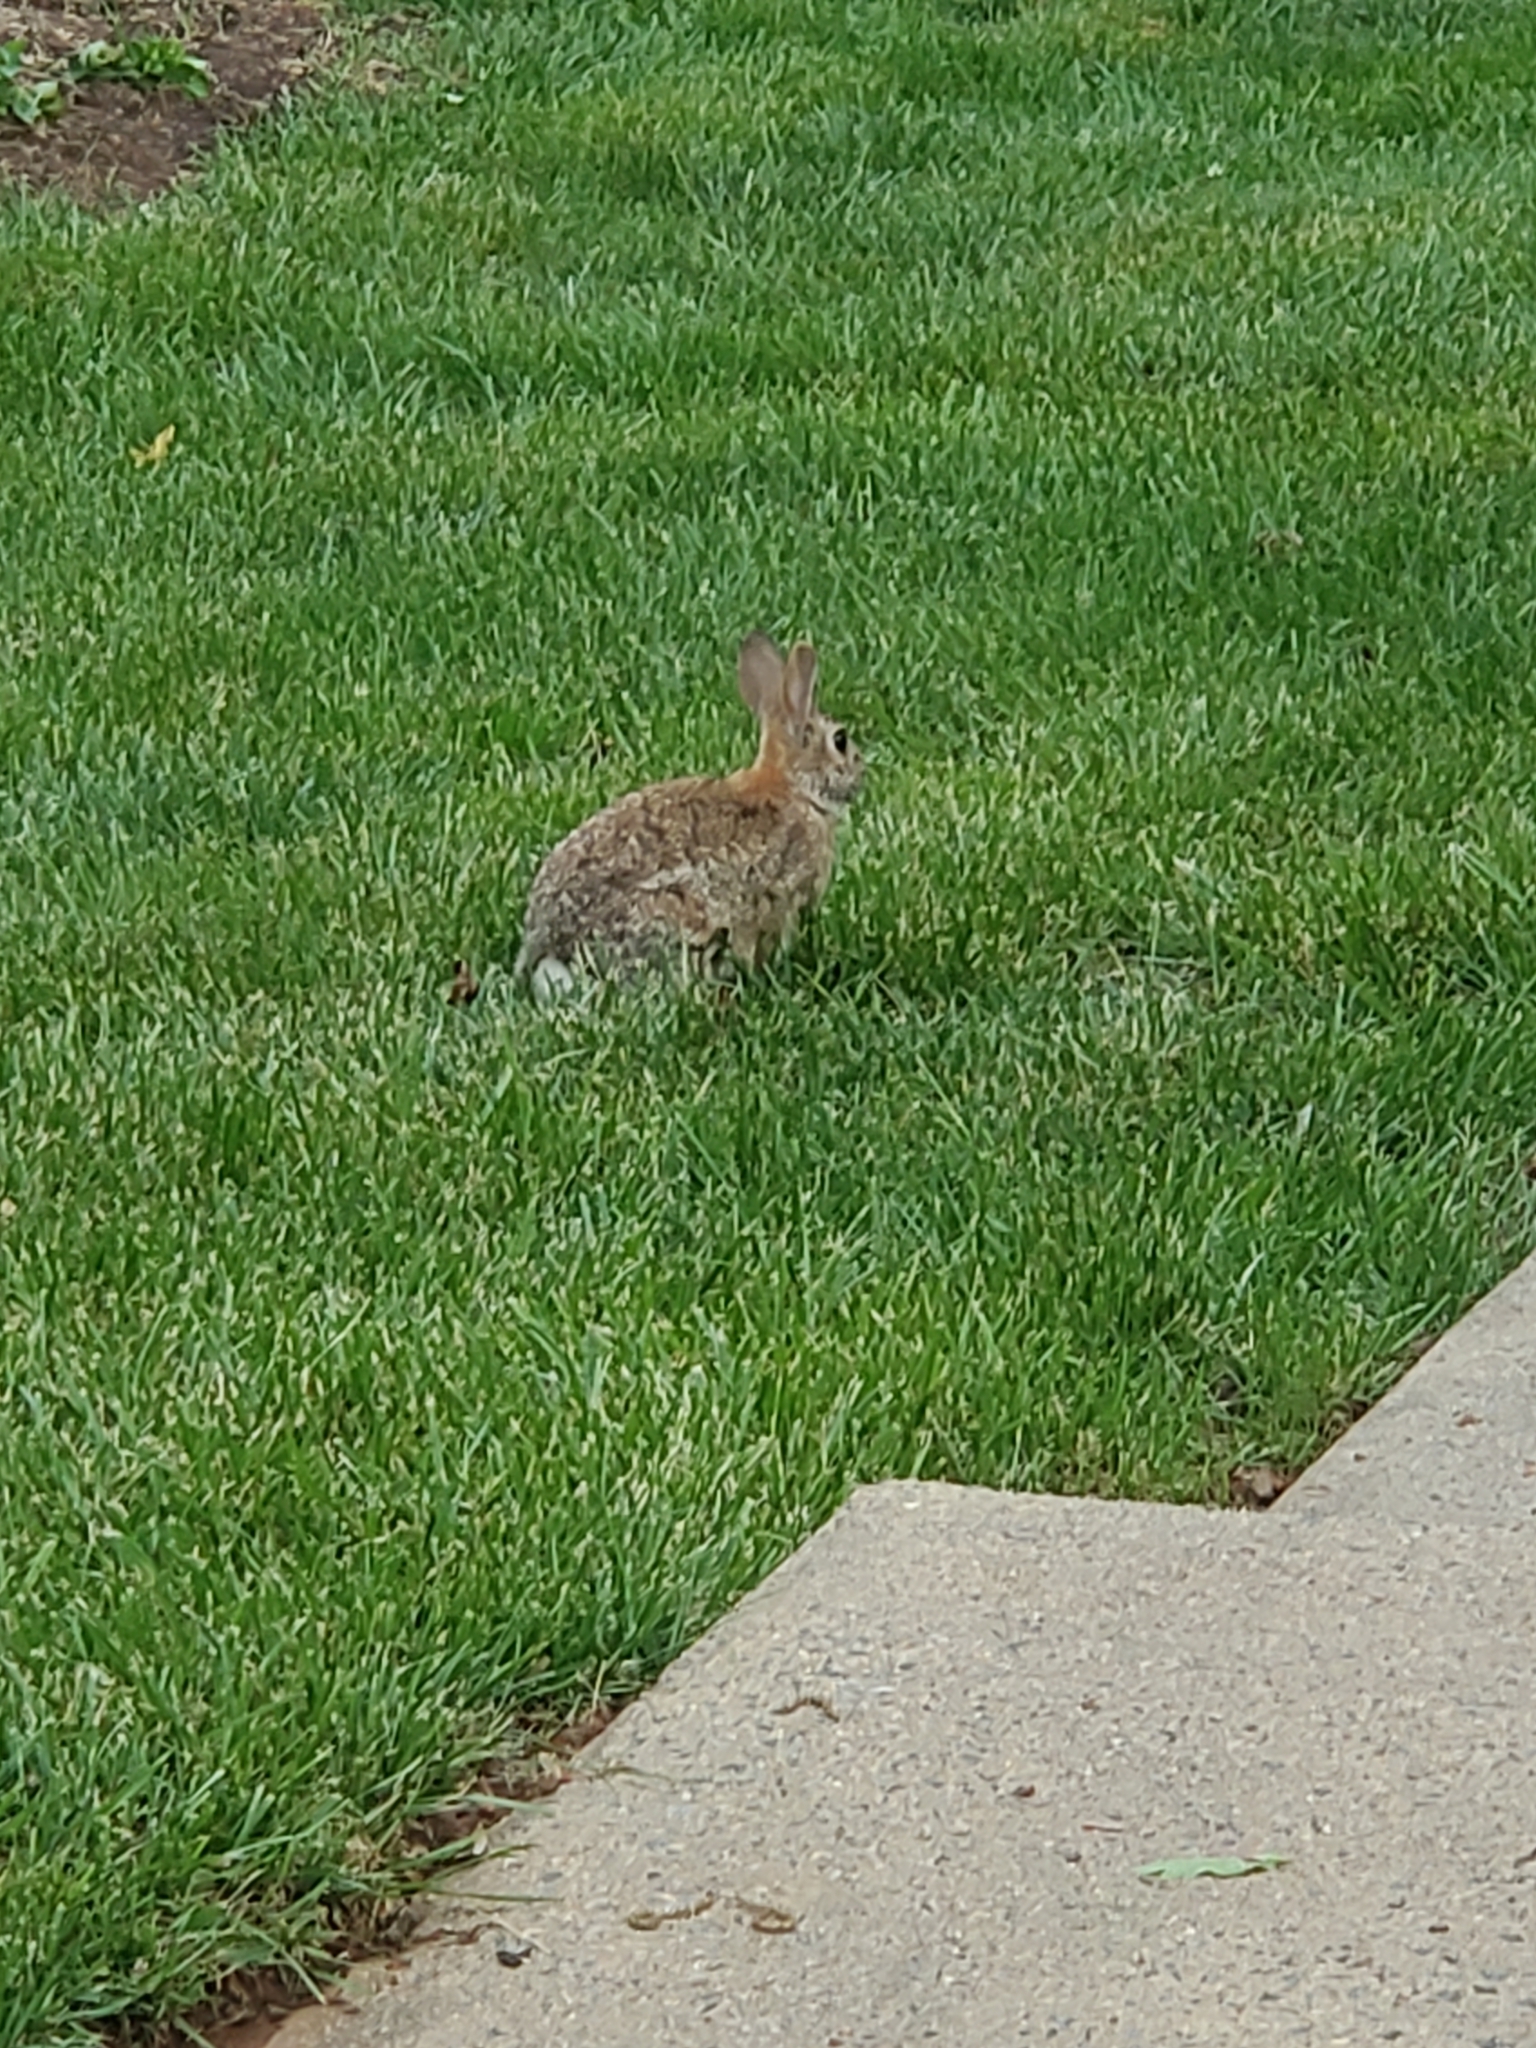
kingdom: Animalia
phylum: Chordata
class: Mammalia
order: Lagomorpha
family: Leporidae
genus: Sylvilagus
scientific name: Sylvilagus floridanus
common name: Eastern cottontail
